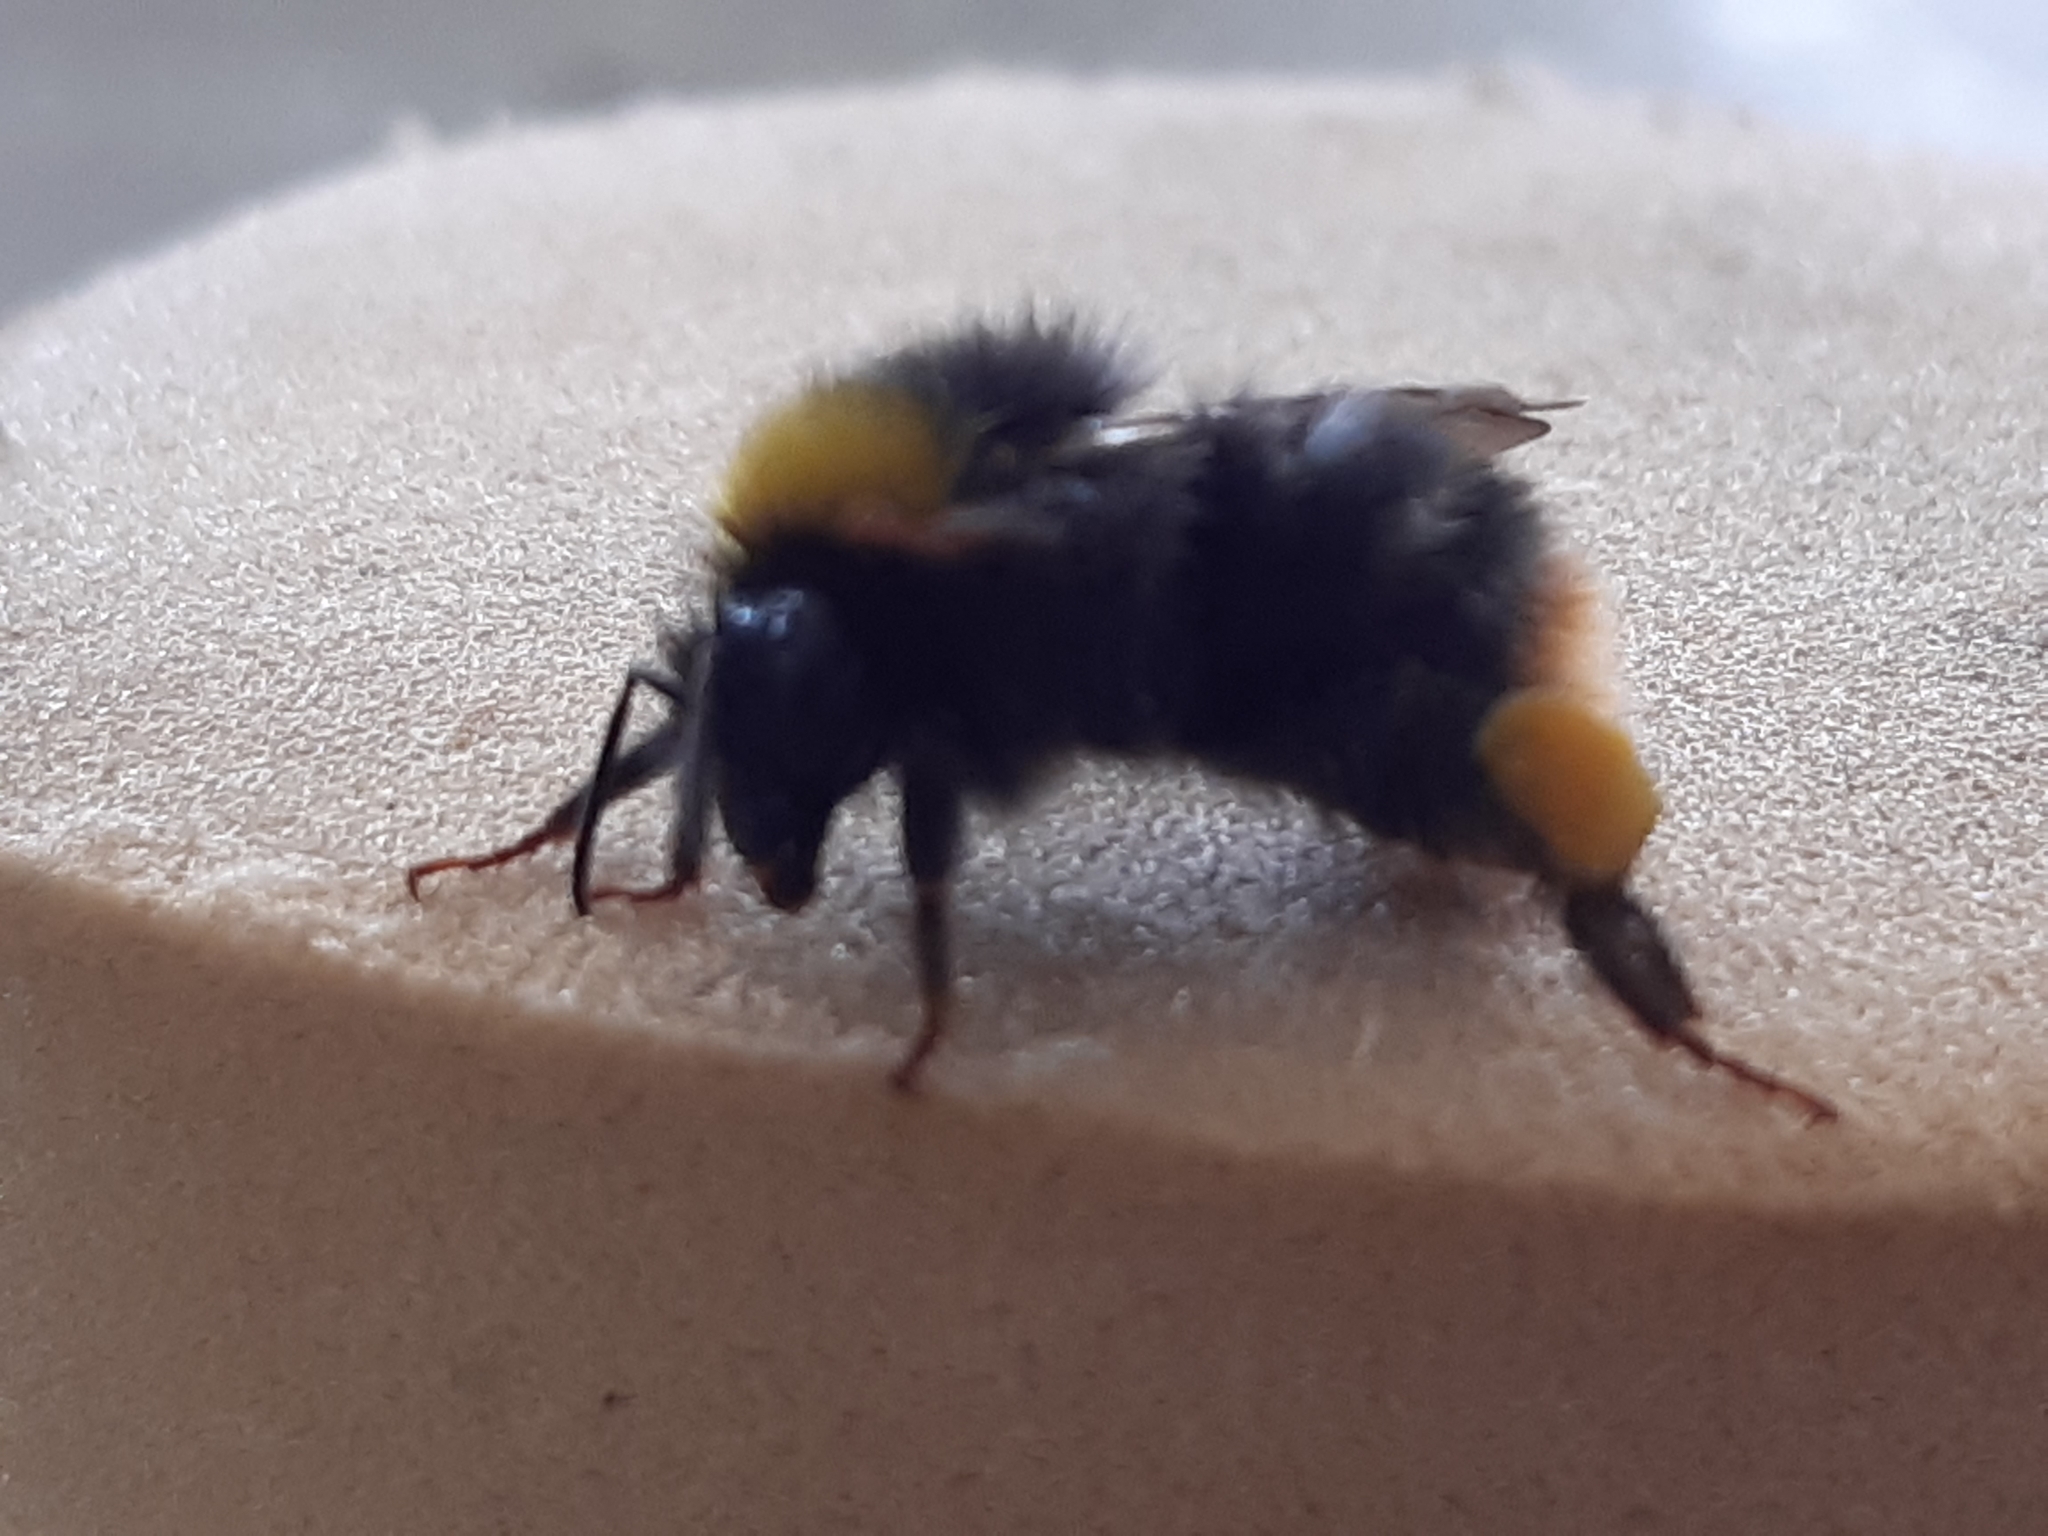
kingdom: Animalia
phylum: Arthropoda
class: Insecta
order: Hymenoptera
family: Apidae
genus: Bombus
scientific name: Bombus pratorum
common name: Early humble-bee
